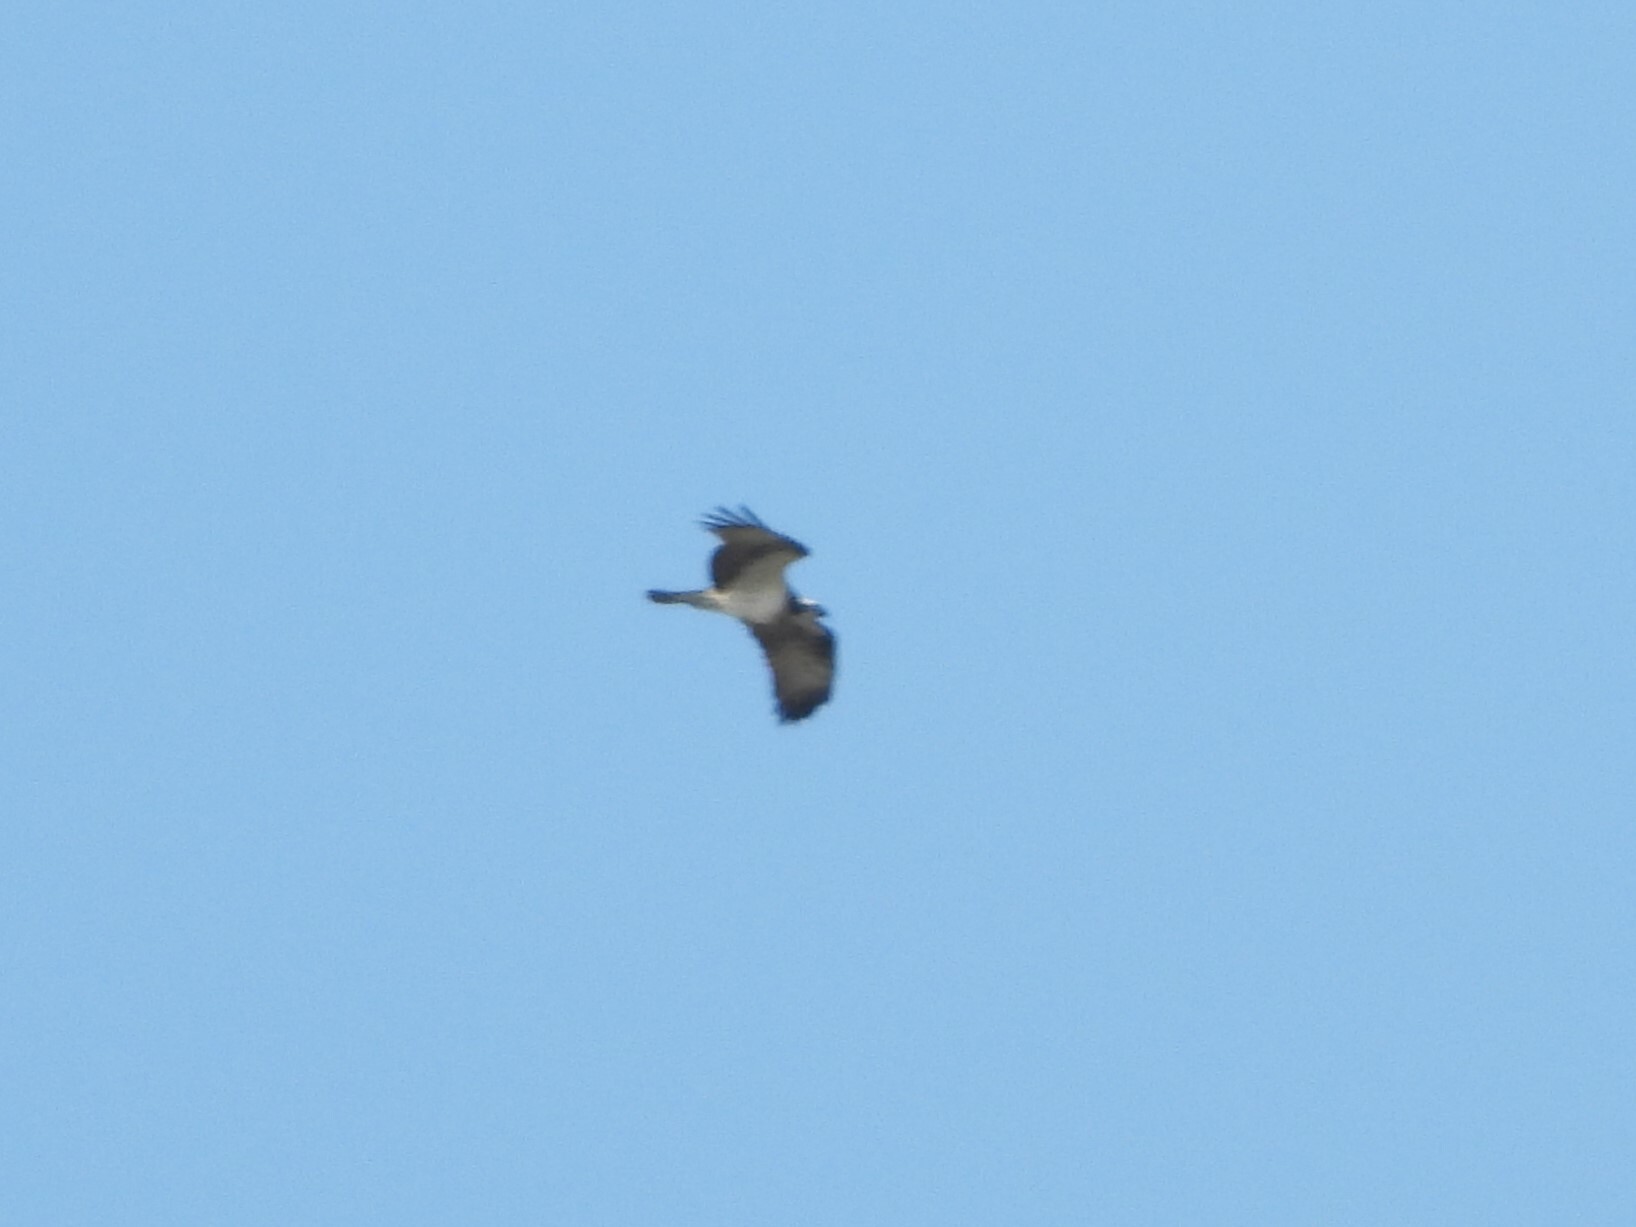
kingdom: Animalia
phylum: Chordata
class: Aves
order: Accipitriformes
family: Pandionidae
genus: Pandion
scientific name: Pandion haliaetus
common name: Osprey
